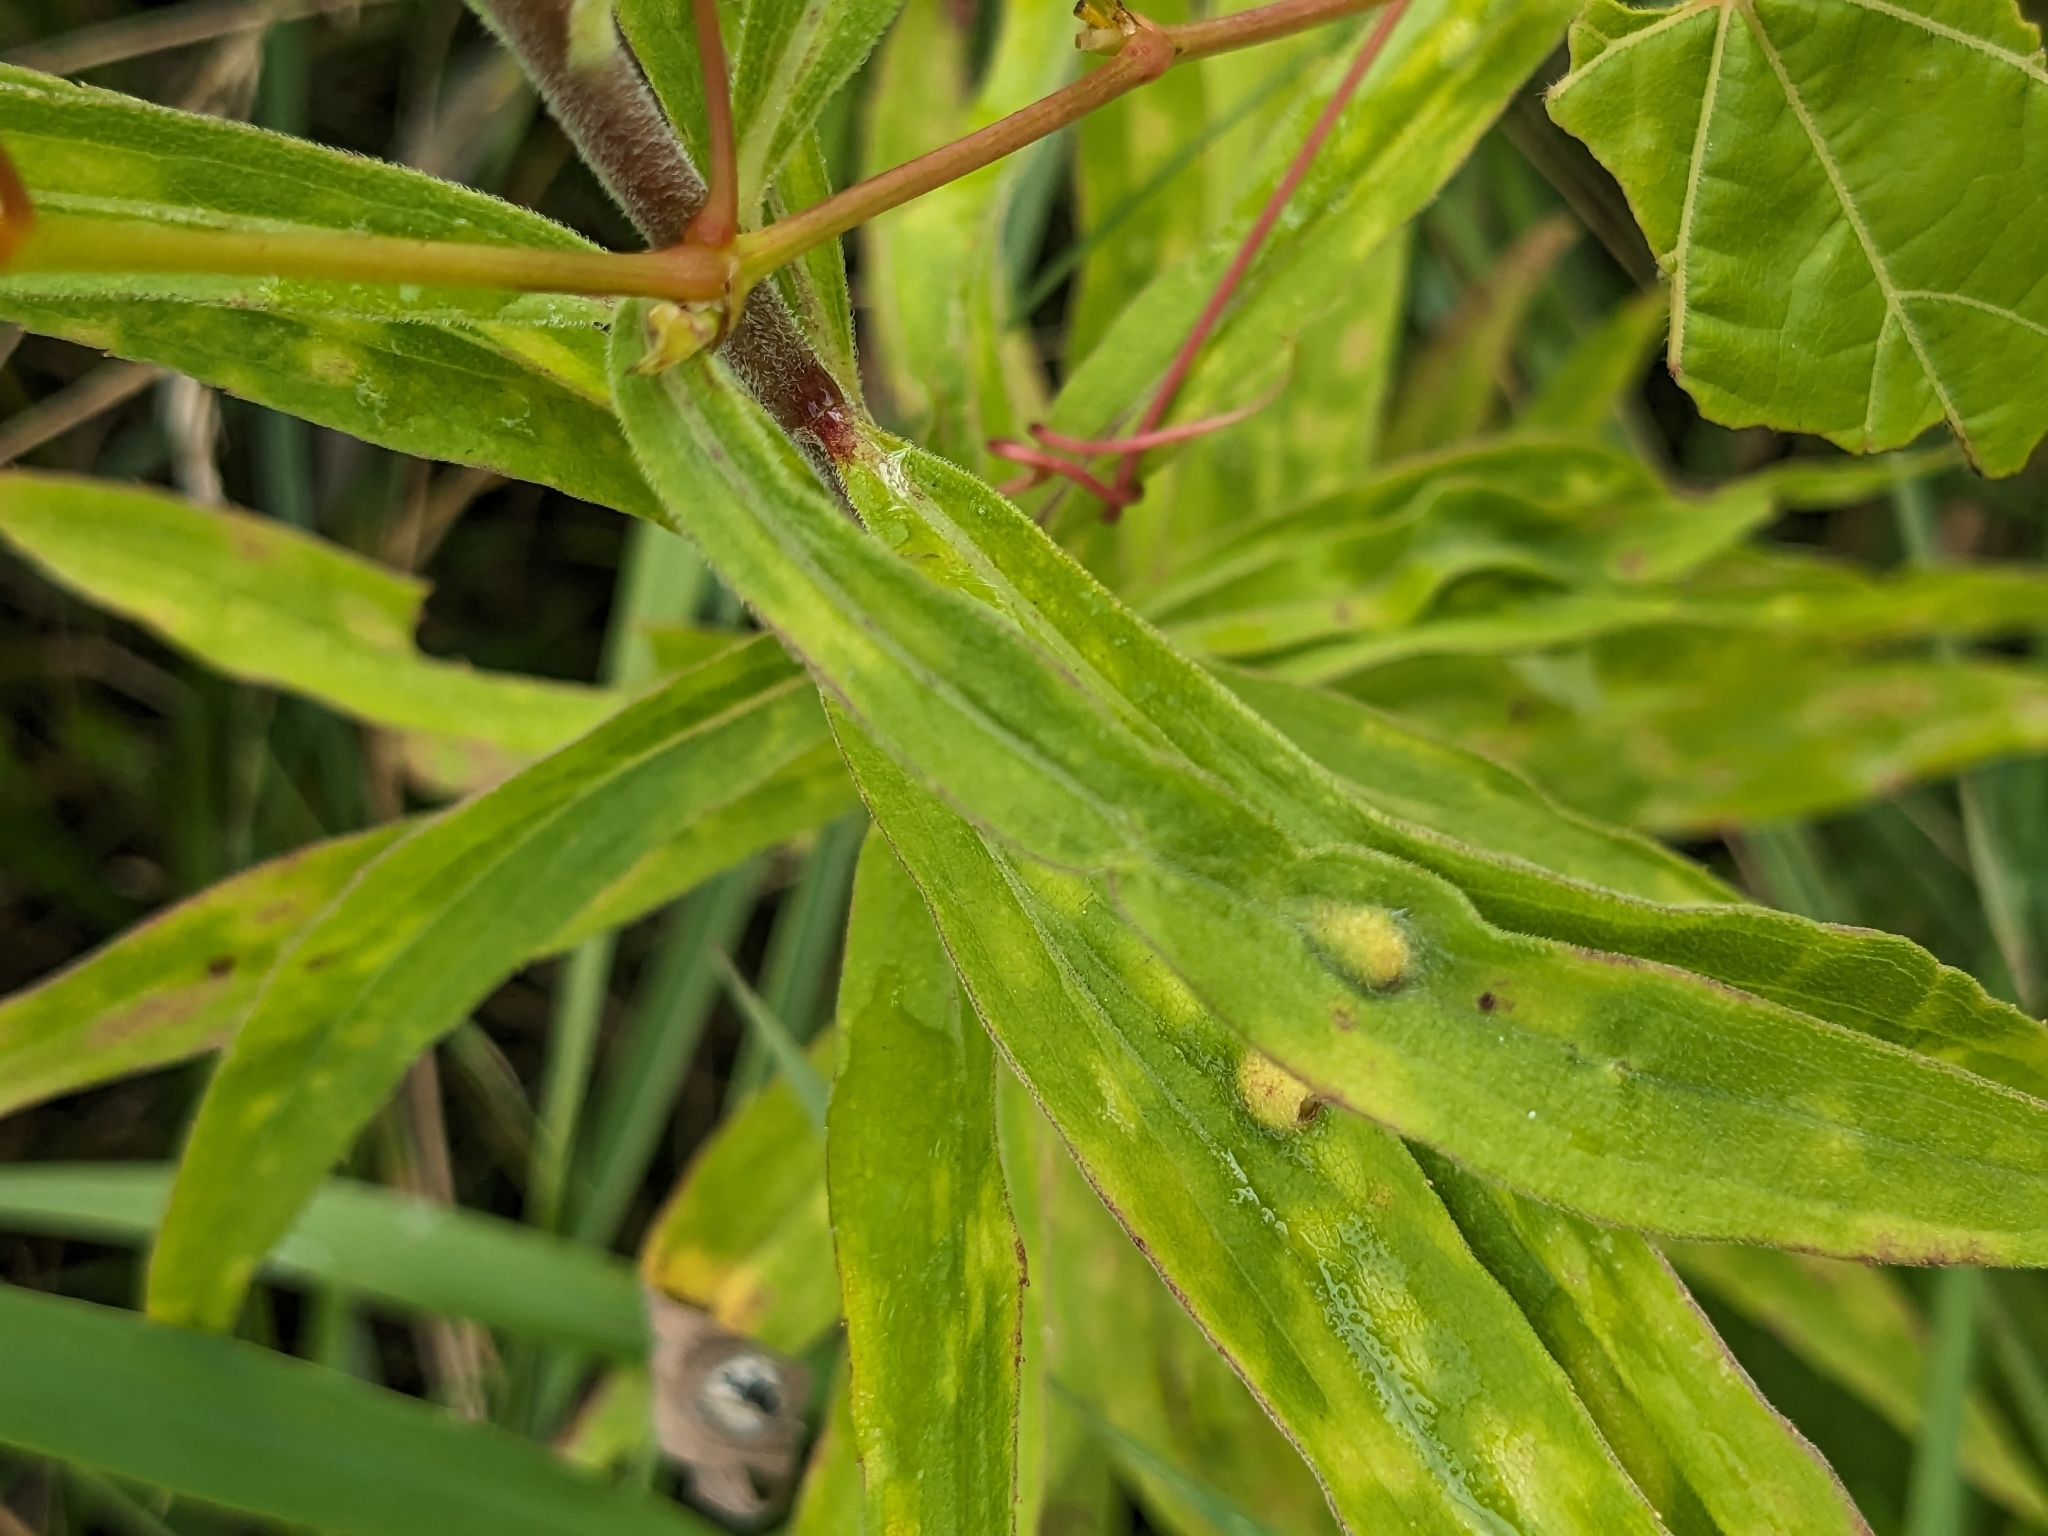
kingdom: Animalia
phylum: Arthropoda
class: Insecta
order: Diptera
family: Cecidomyiidae
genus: Asphondylia
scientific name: Asphondylia solidaginis
